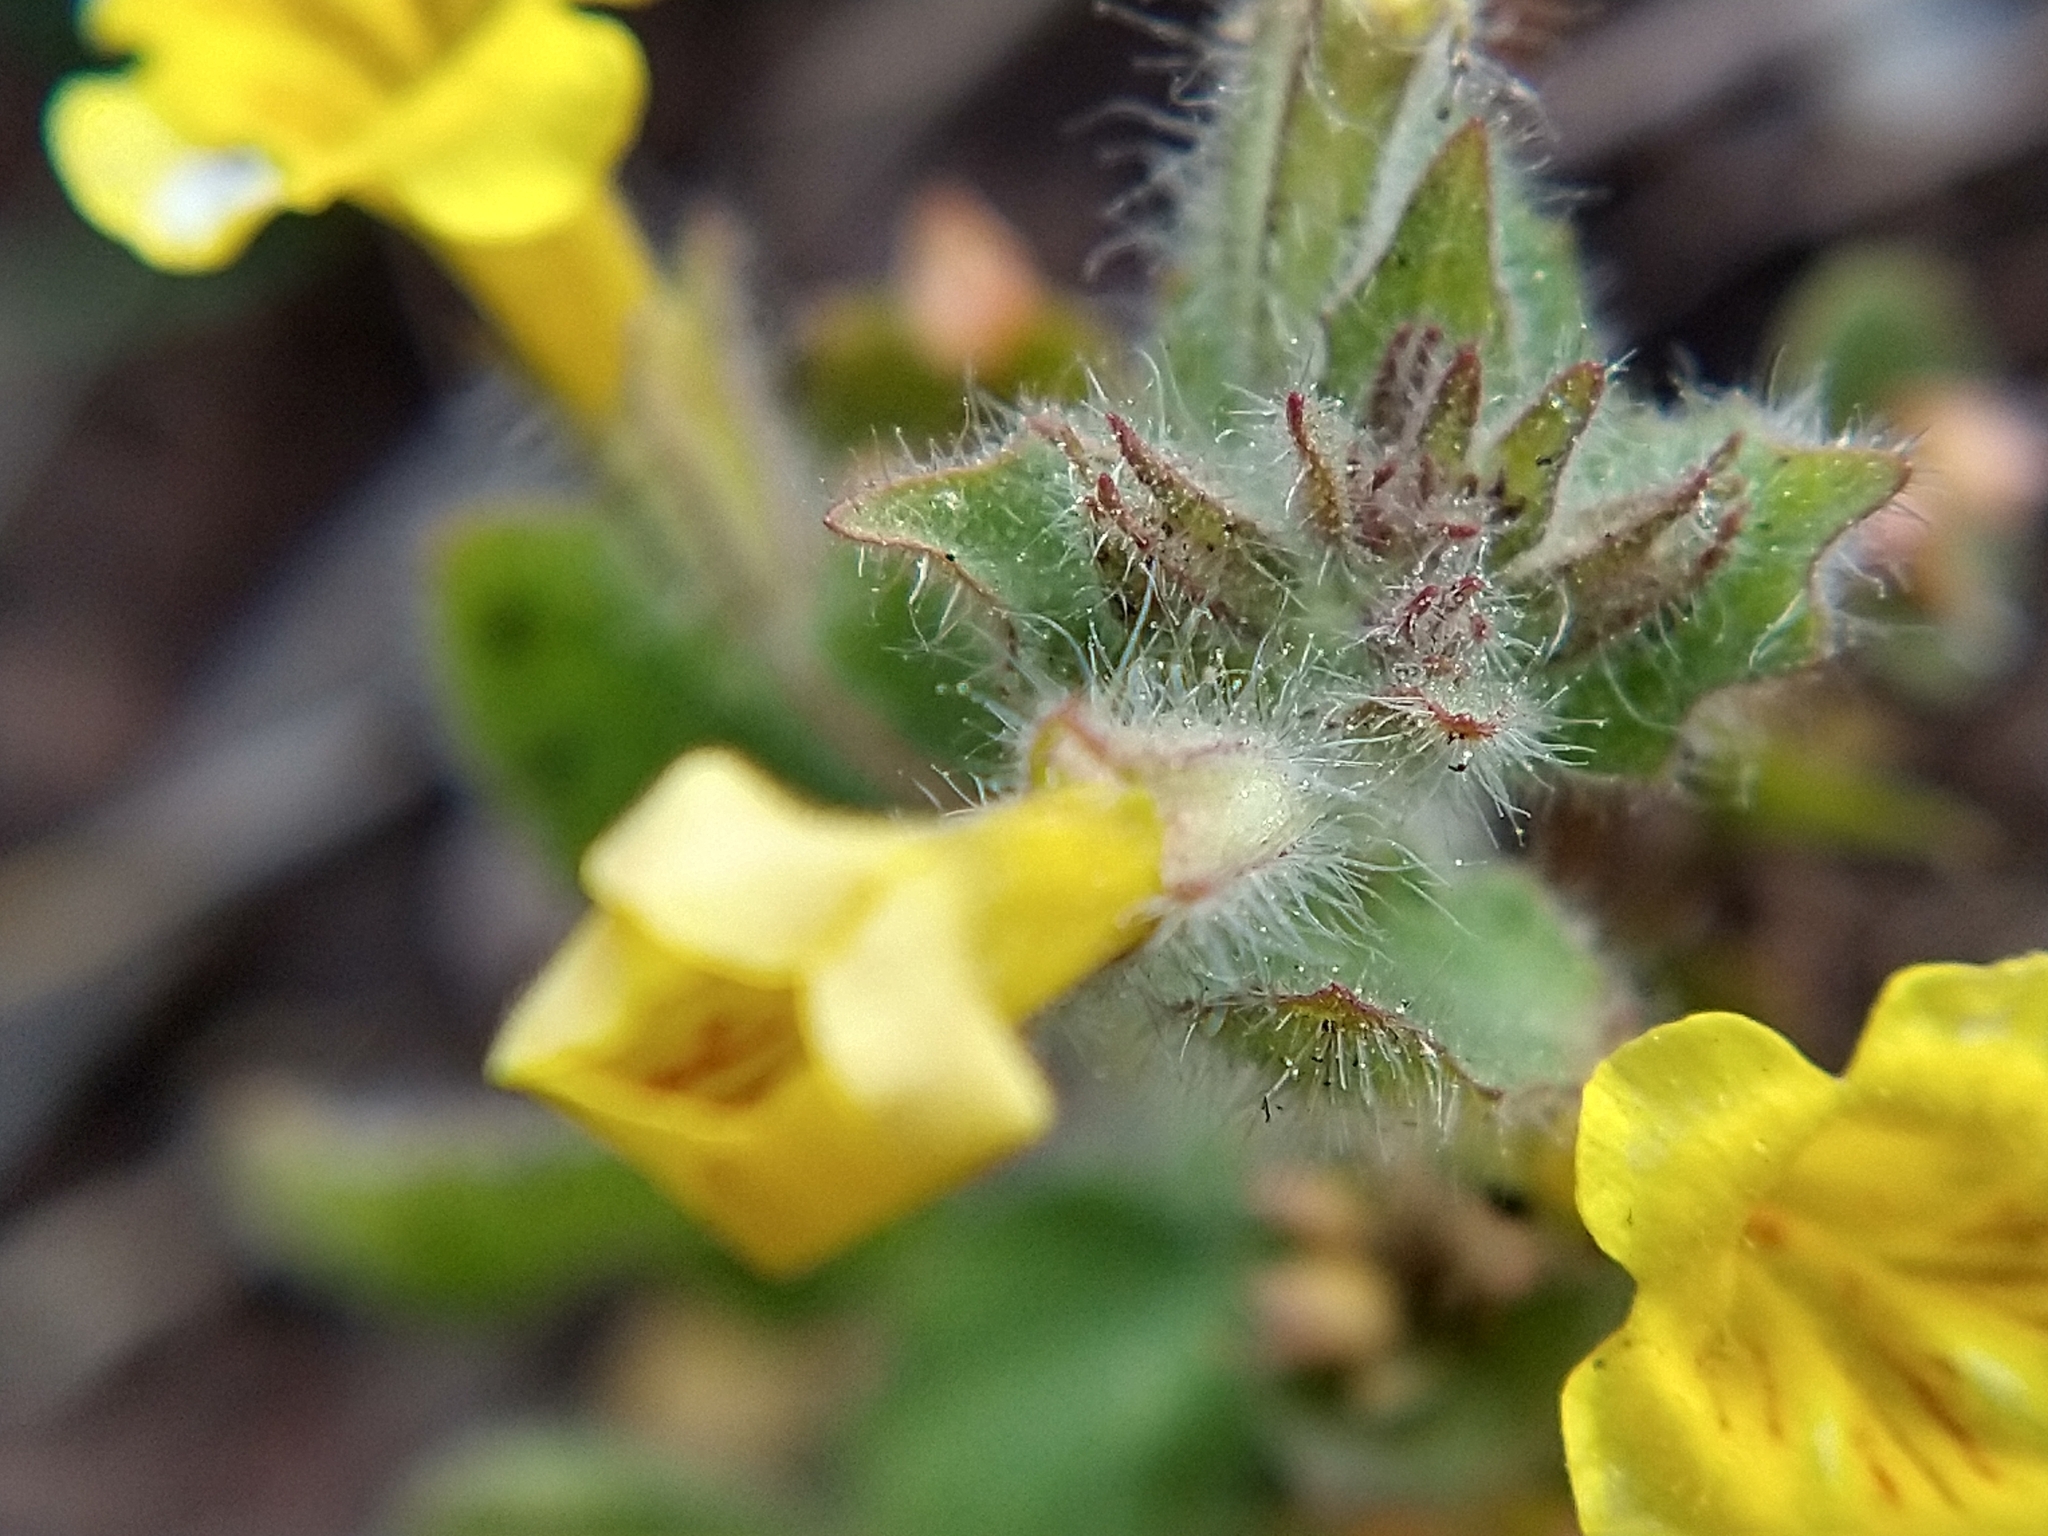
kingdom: Plantae
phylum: Tracheophyta
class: Magnoliopsida
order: Lamiales
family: Phrymaceae
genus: Erythranthe
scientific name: Erythranthe moschata
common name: Muskflower
